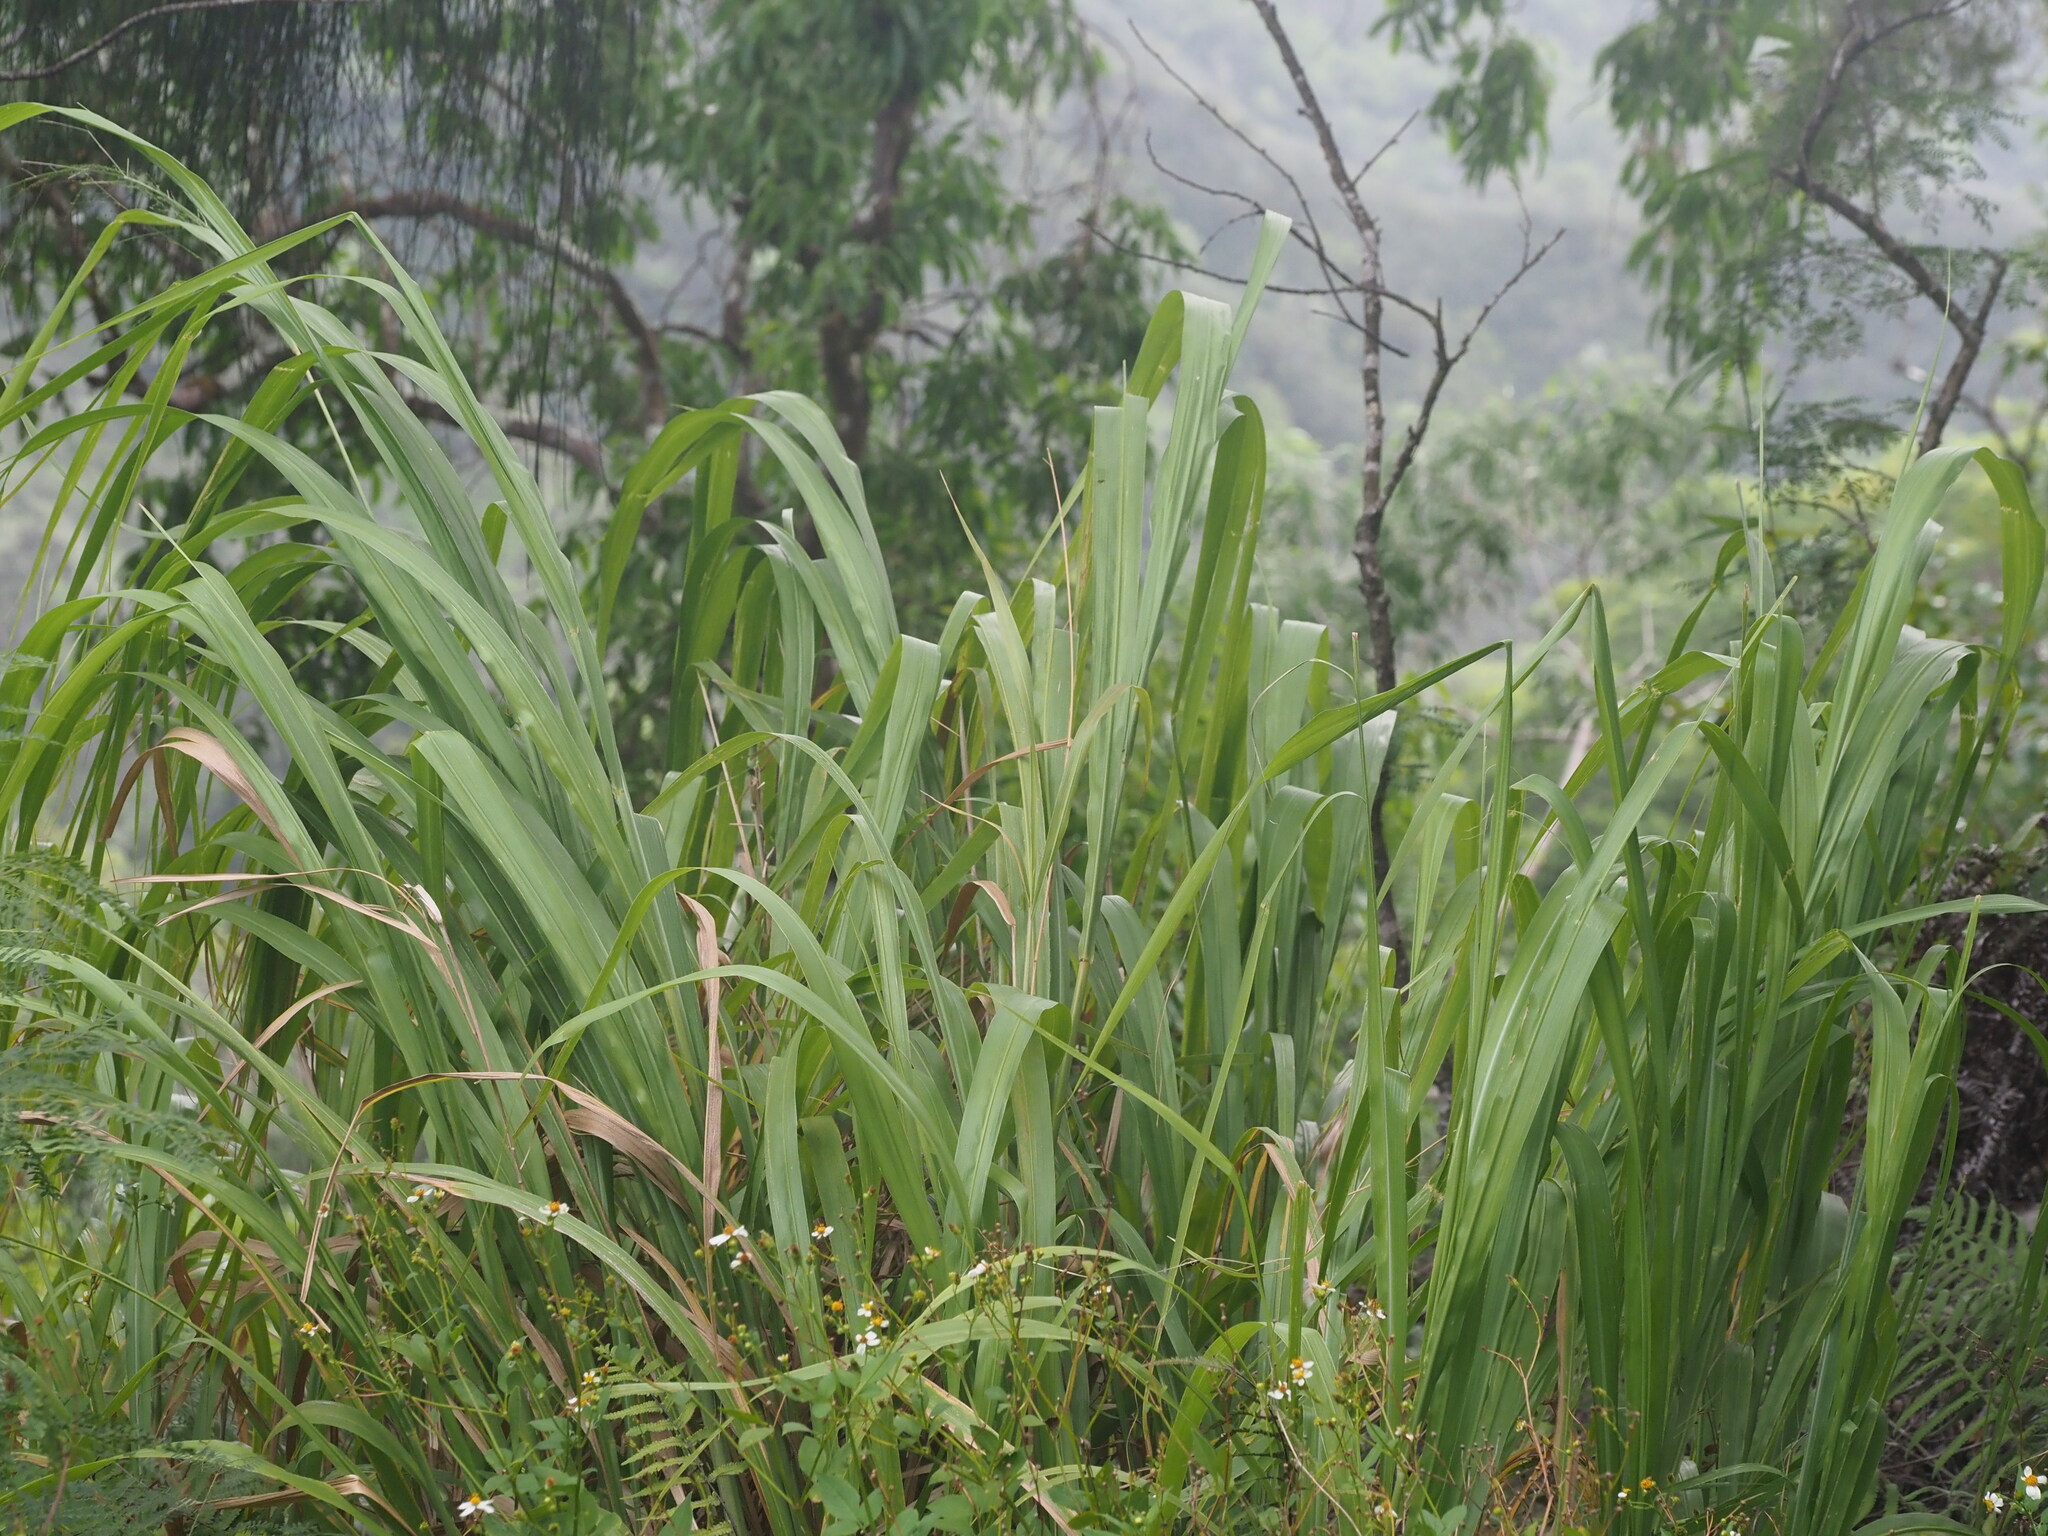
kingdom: Plantae
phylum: Tracheophyta
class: Liliopsida
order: Poales
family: Poaceae
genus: Megathyrsus
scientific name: Megathyrsus maximus
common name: Guineagrass
